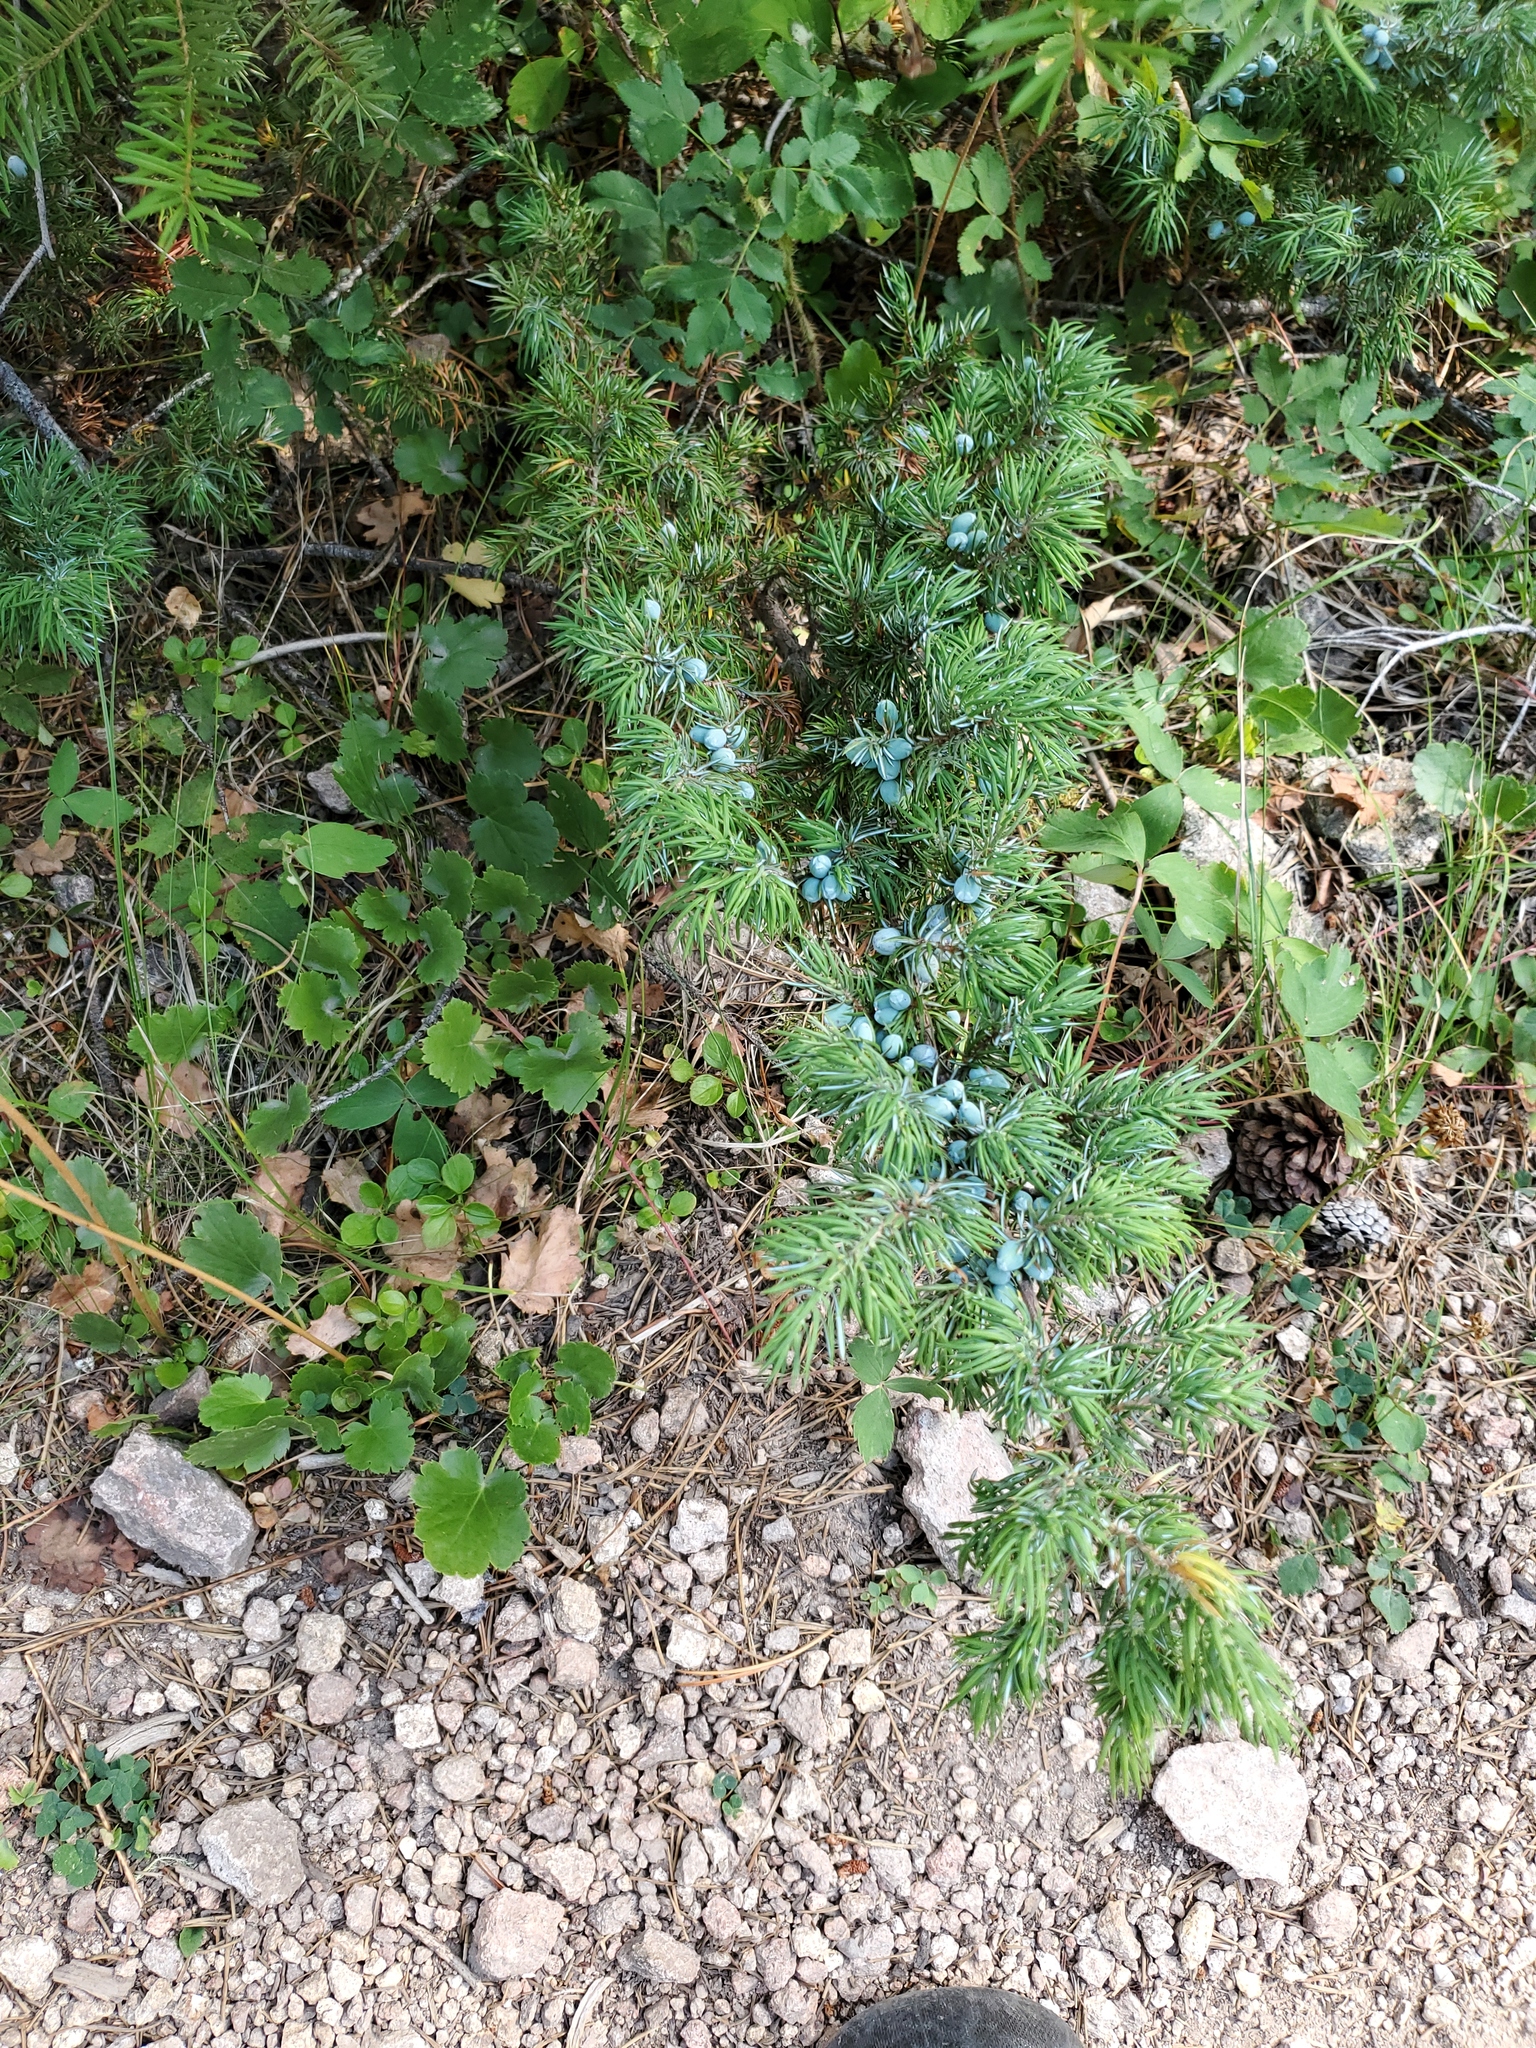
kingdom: Plantae
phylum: Tracheophyta
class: Pinopsida
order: Pinales
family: Cupressaceae
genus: Juniperus
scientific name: Juniperus communis
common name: Common juniper
